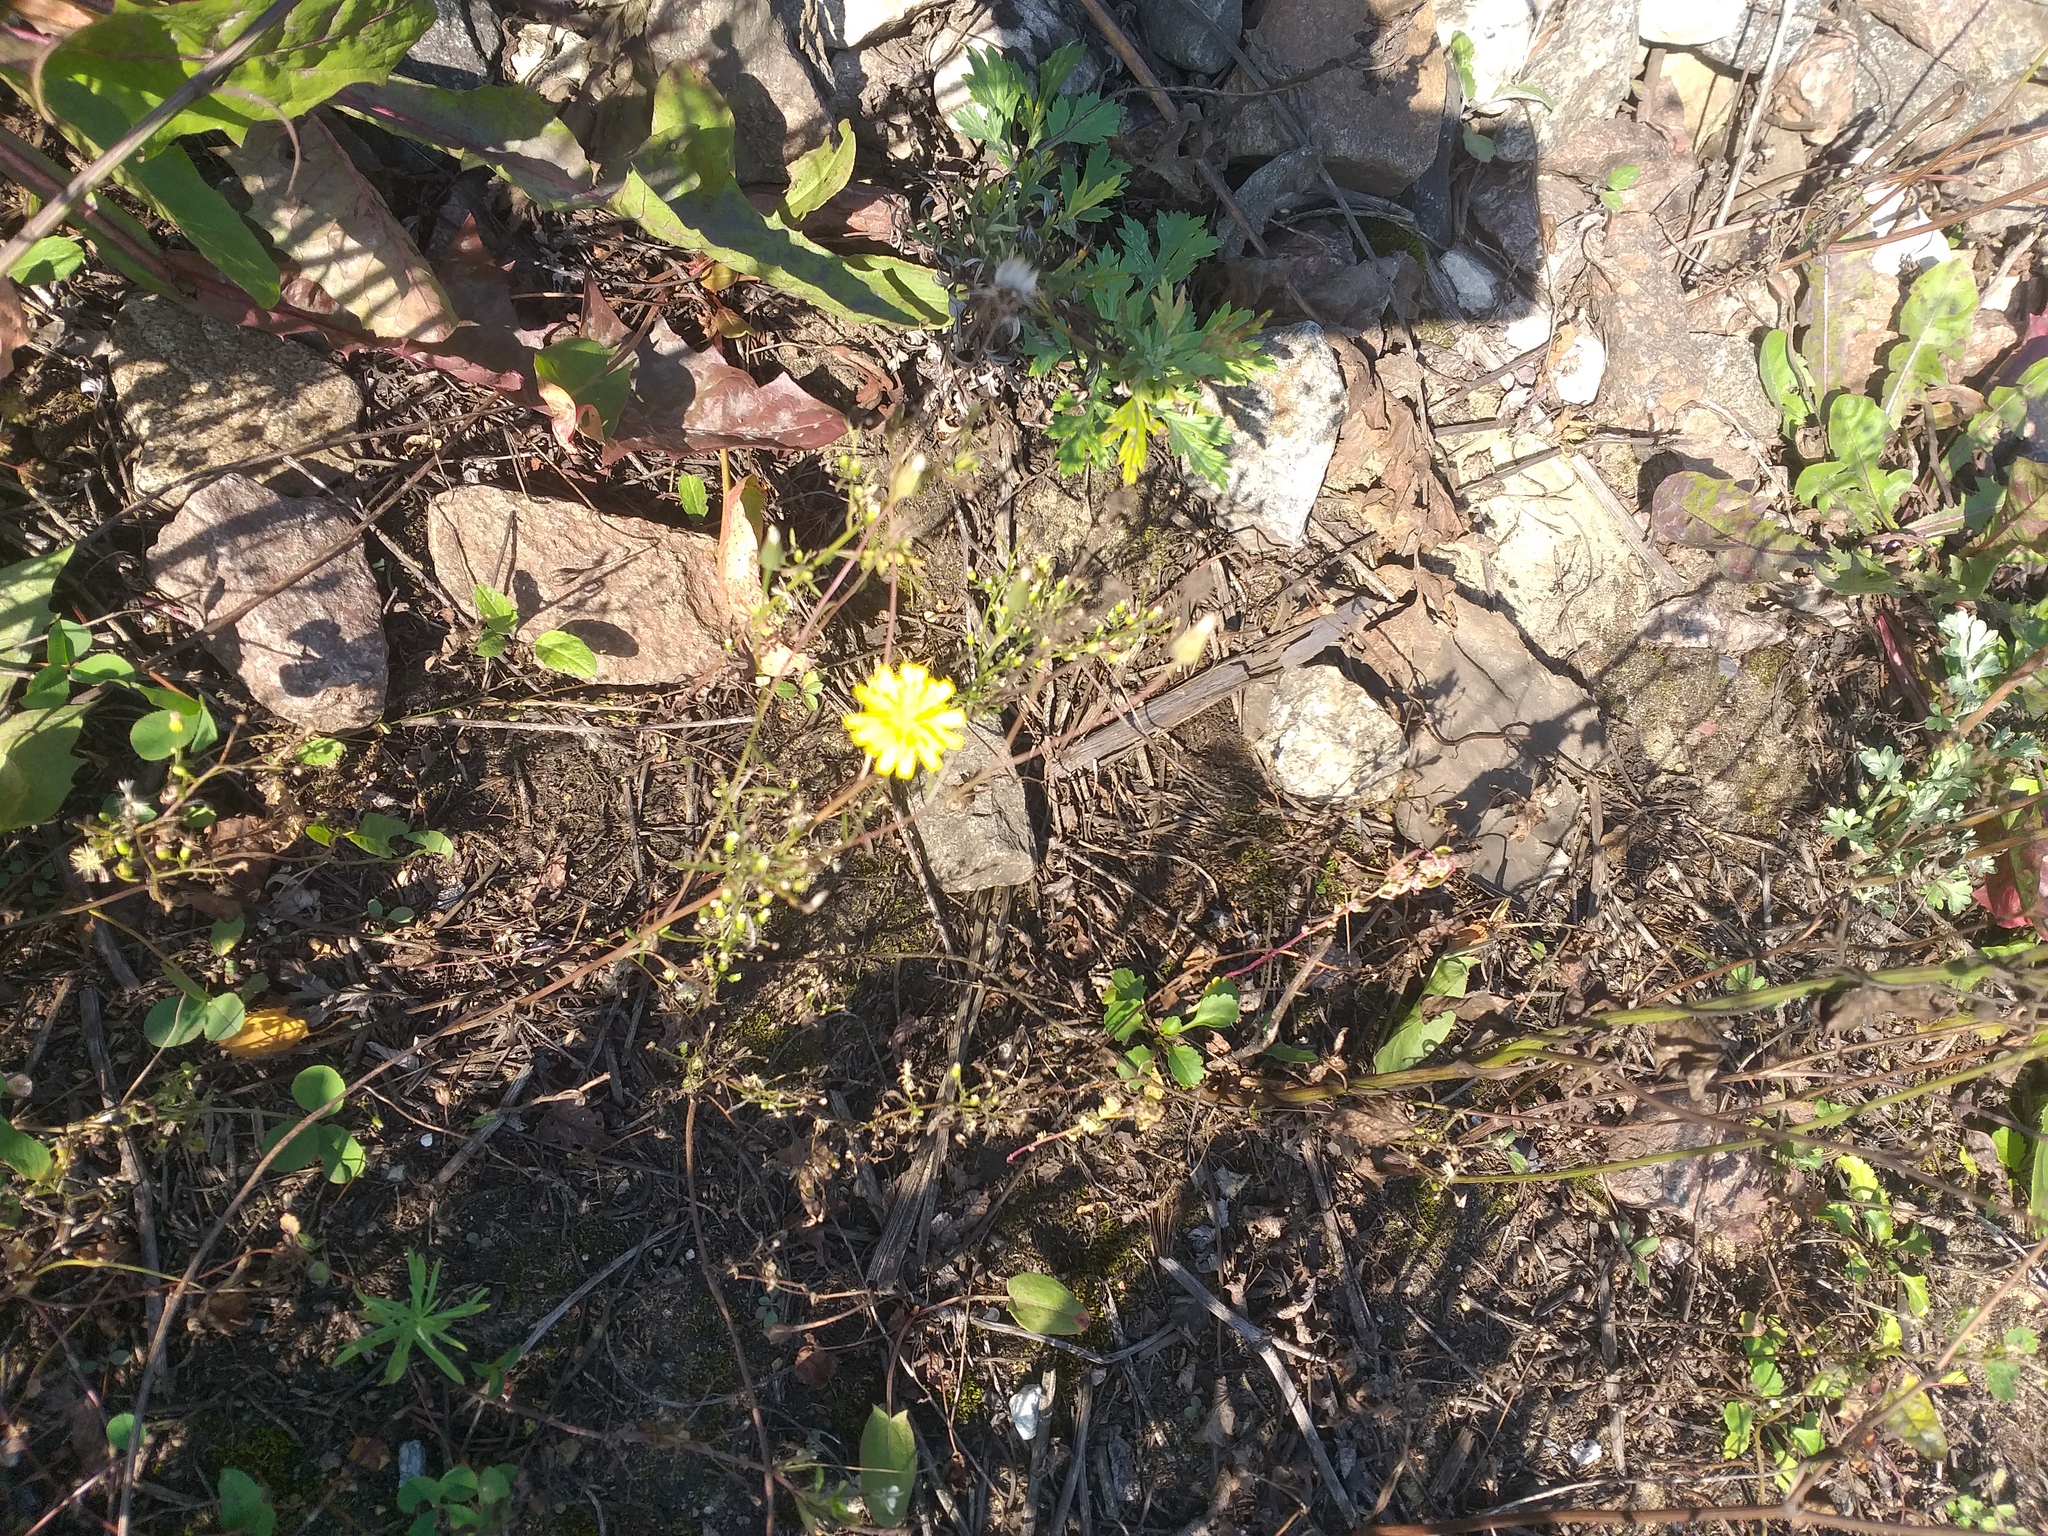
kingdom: Plantae
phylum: Tracheophyta
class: Magnoliopsida
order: Asterales
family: Asteraceae
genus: Crepis
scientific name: Crepis tectorum
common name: Narrow-leaved hawk's-beard
